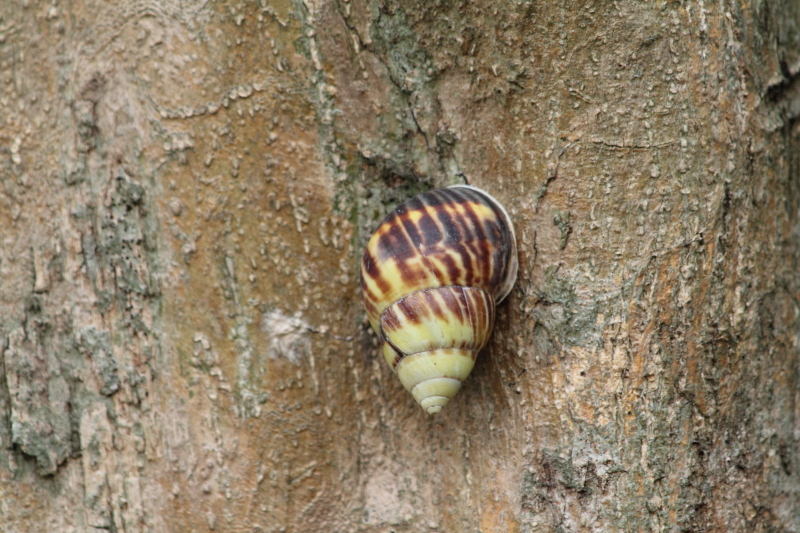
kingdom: Animalia
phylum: Mollusca
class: Gastropoda
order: Stylommatophora
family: Camaenidae
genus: Amphidromus
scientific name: Amphidromus perversus
